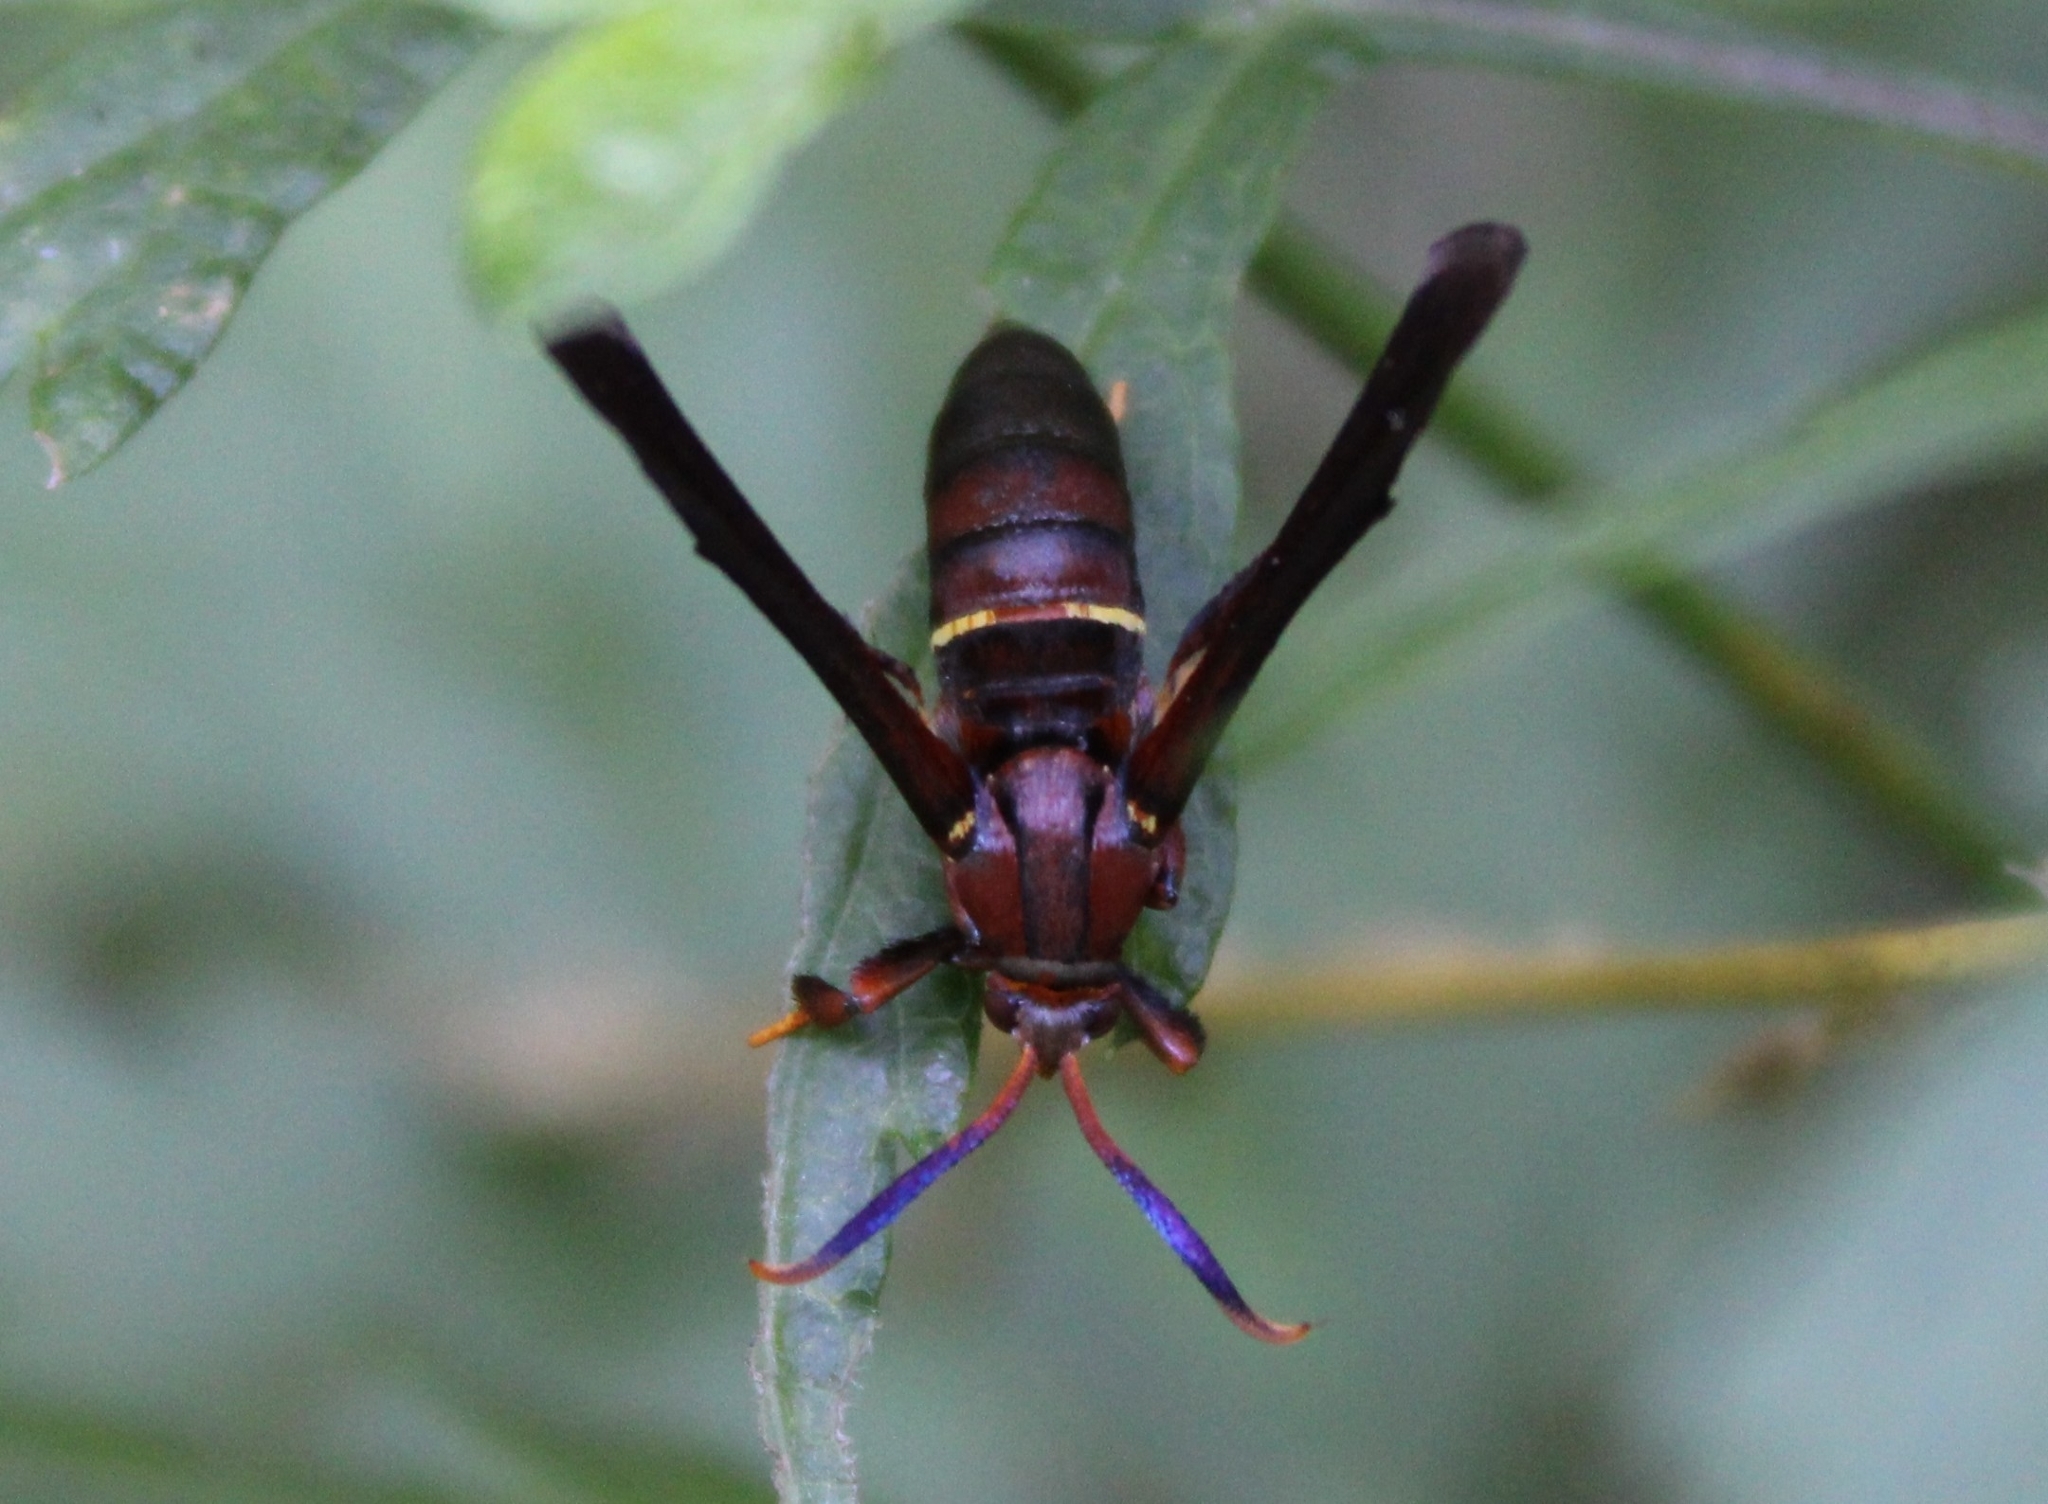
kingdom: Animalia
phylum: Arthropoda
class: Insecta
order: Lepidoptera
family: Sesiidae
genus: Vitacea
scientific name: Vitacea scepsiformis
